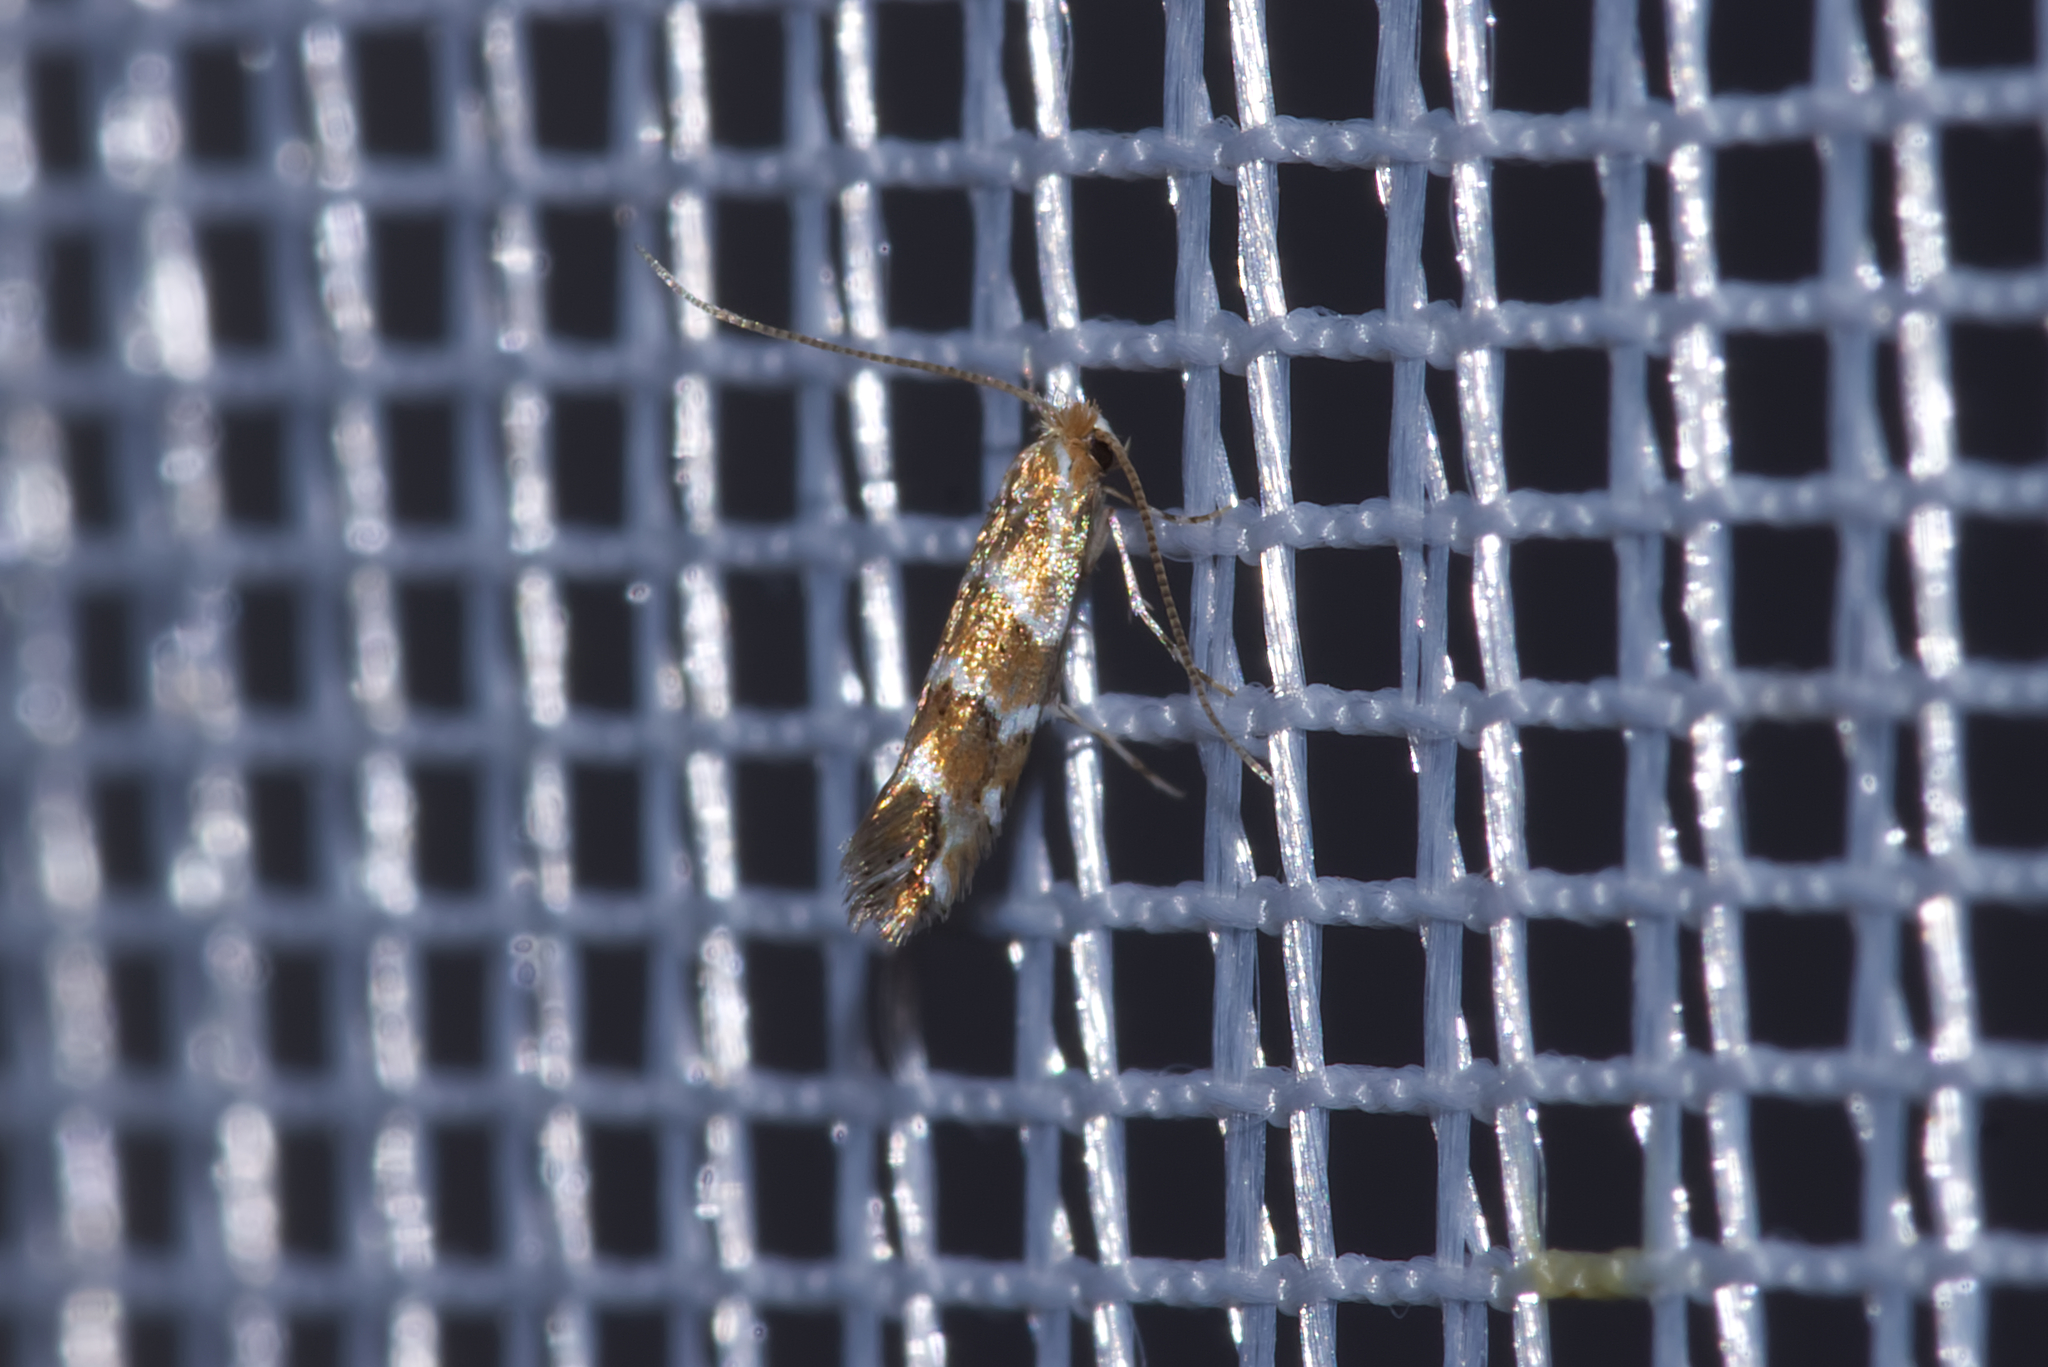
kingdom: Animalia
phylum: Arthropoda
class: Insecta
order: Lepidoptera
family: Gracillariidae
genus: Cameraria
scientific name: Cameraria ohridella
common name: Horse-chestnut leaf-miner
